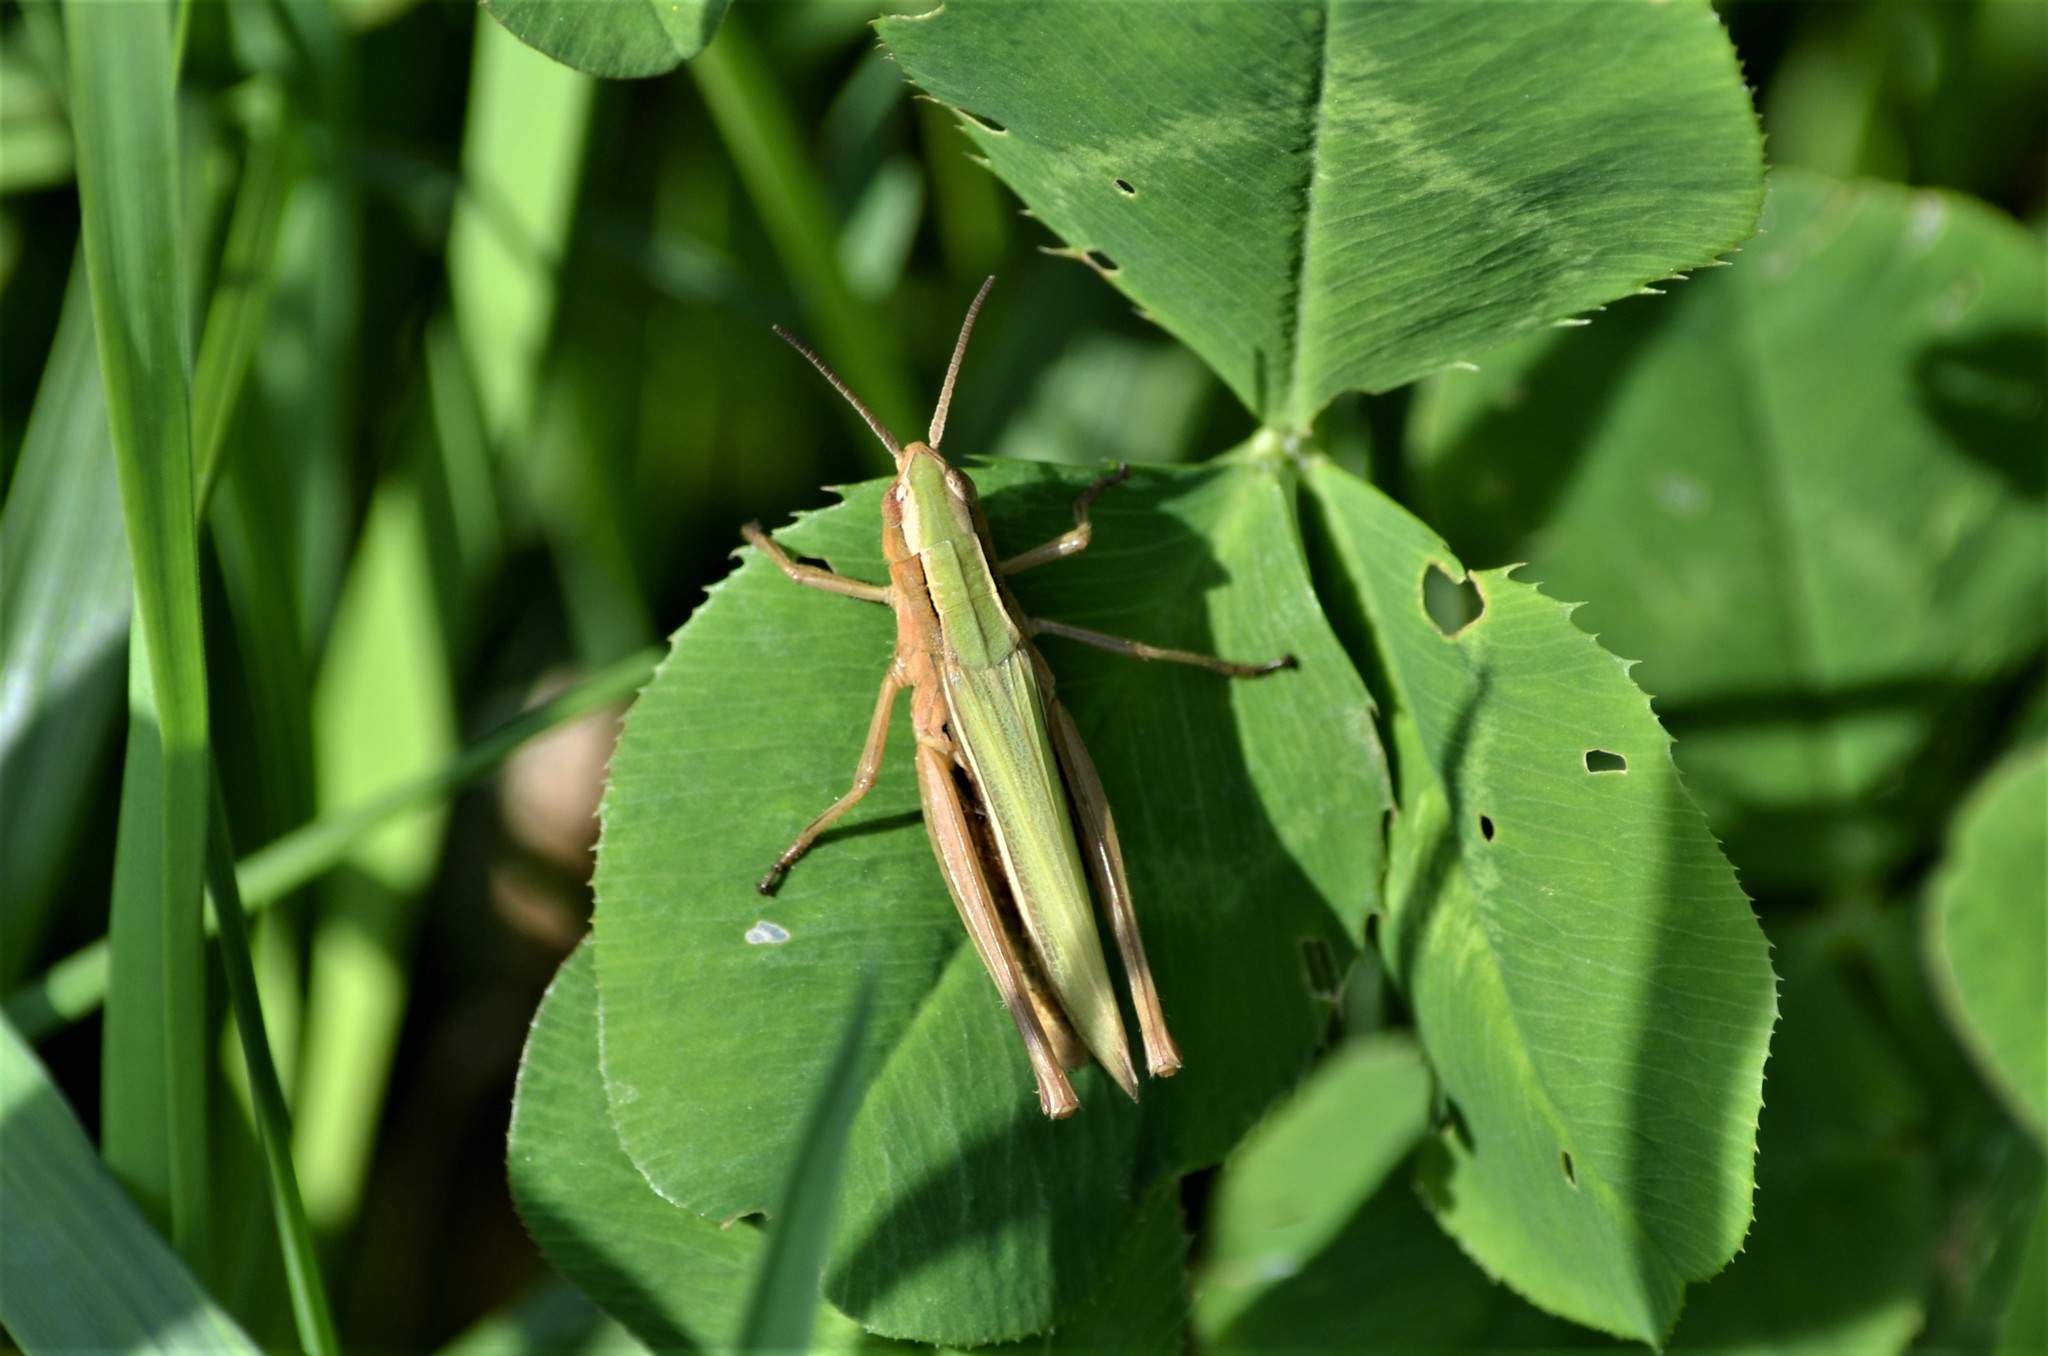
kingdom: Animalia
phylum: Arthropoda
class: Insecta
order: Orthoptera
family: Acrididae
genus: Chorthippus
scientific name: Chorthippus albomarginatus
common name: Lesser marsh grasshopper
